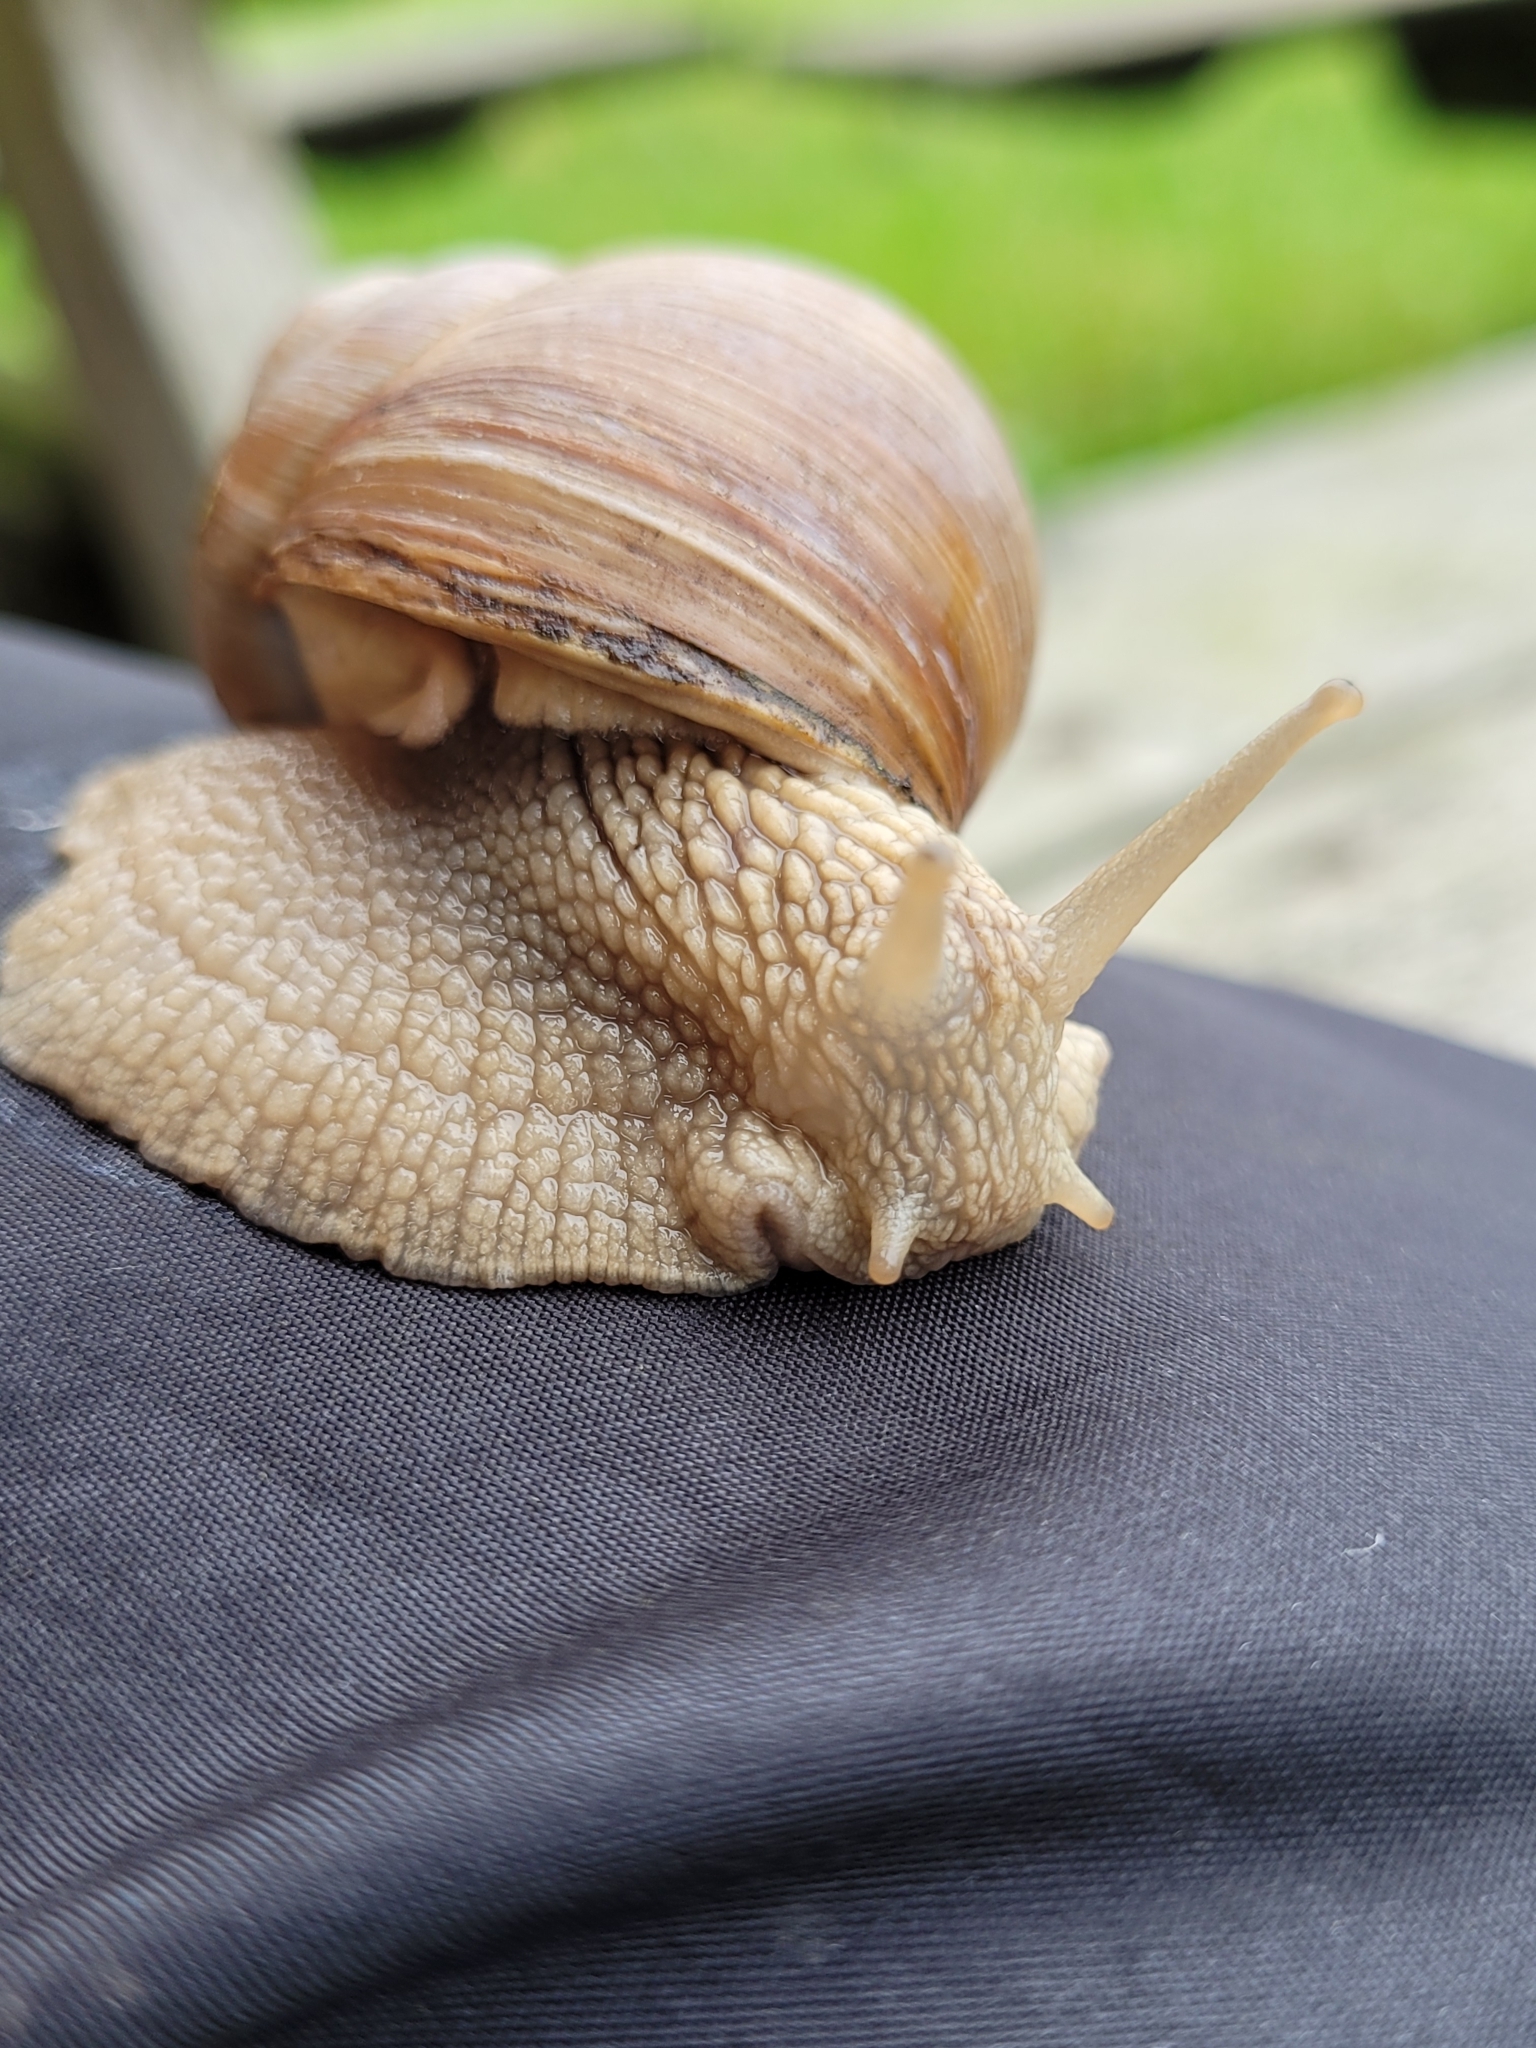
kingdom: Animalia
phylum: Mollusca
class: Gastropoda
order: Stylommatophora
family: Helicidae
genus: Helix
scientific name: Helix pomatia
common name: Roman snail
